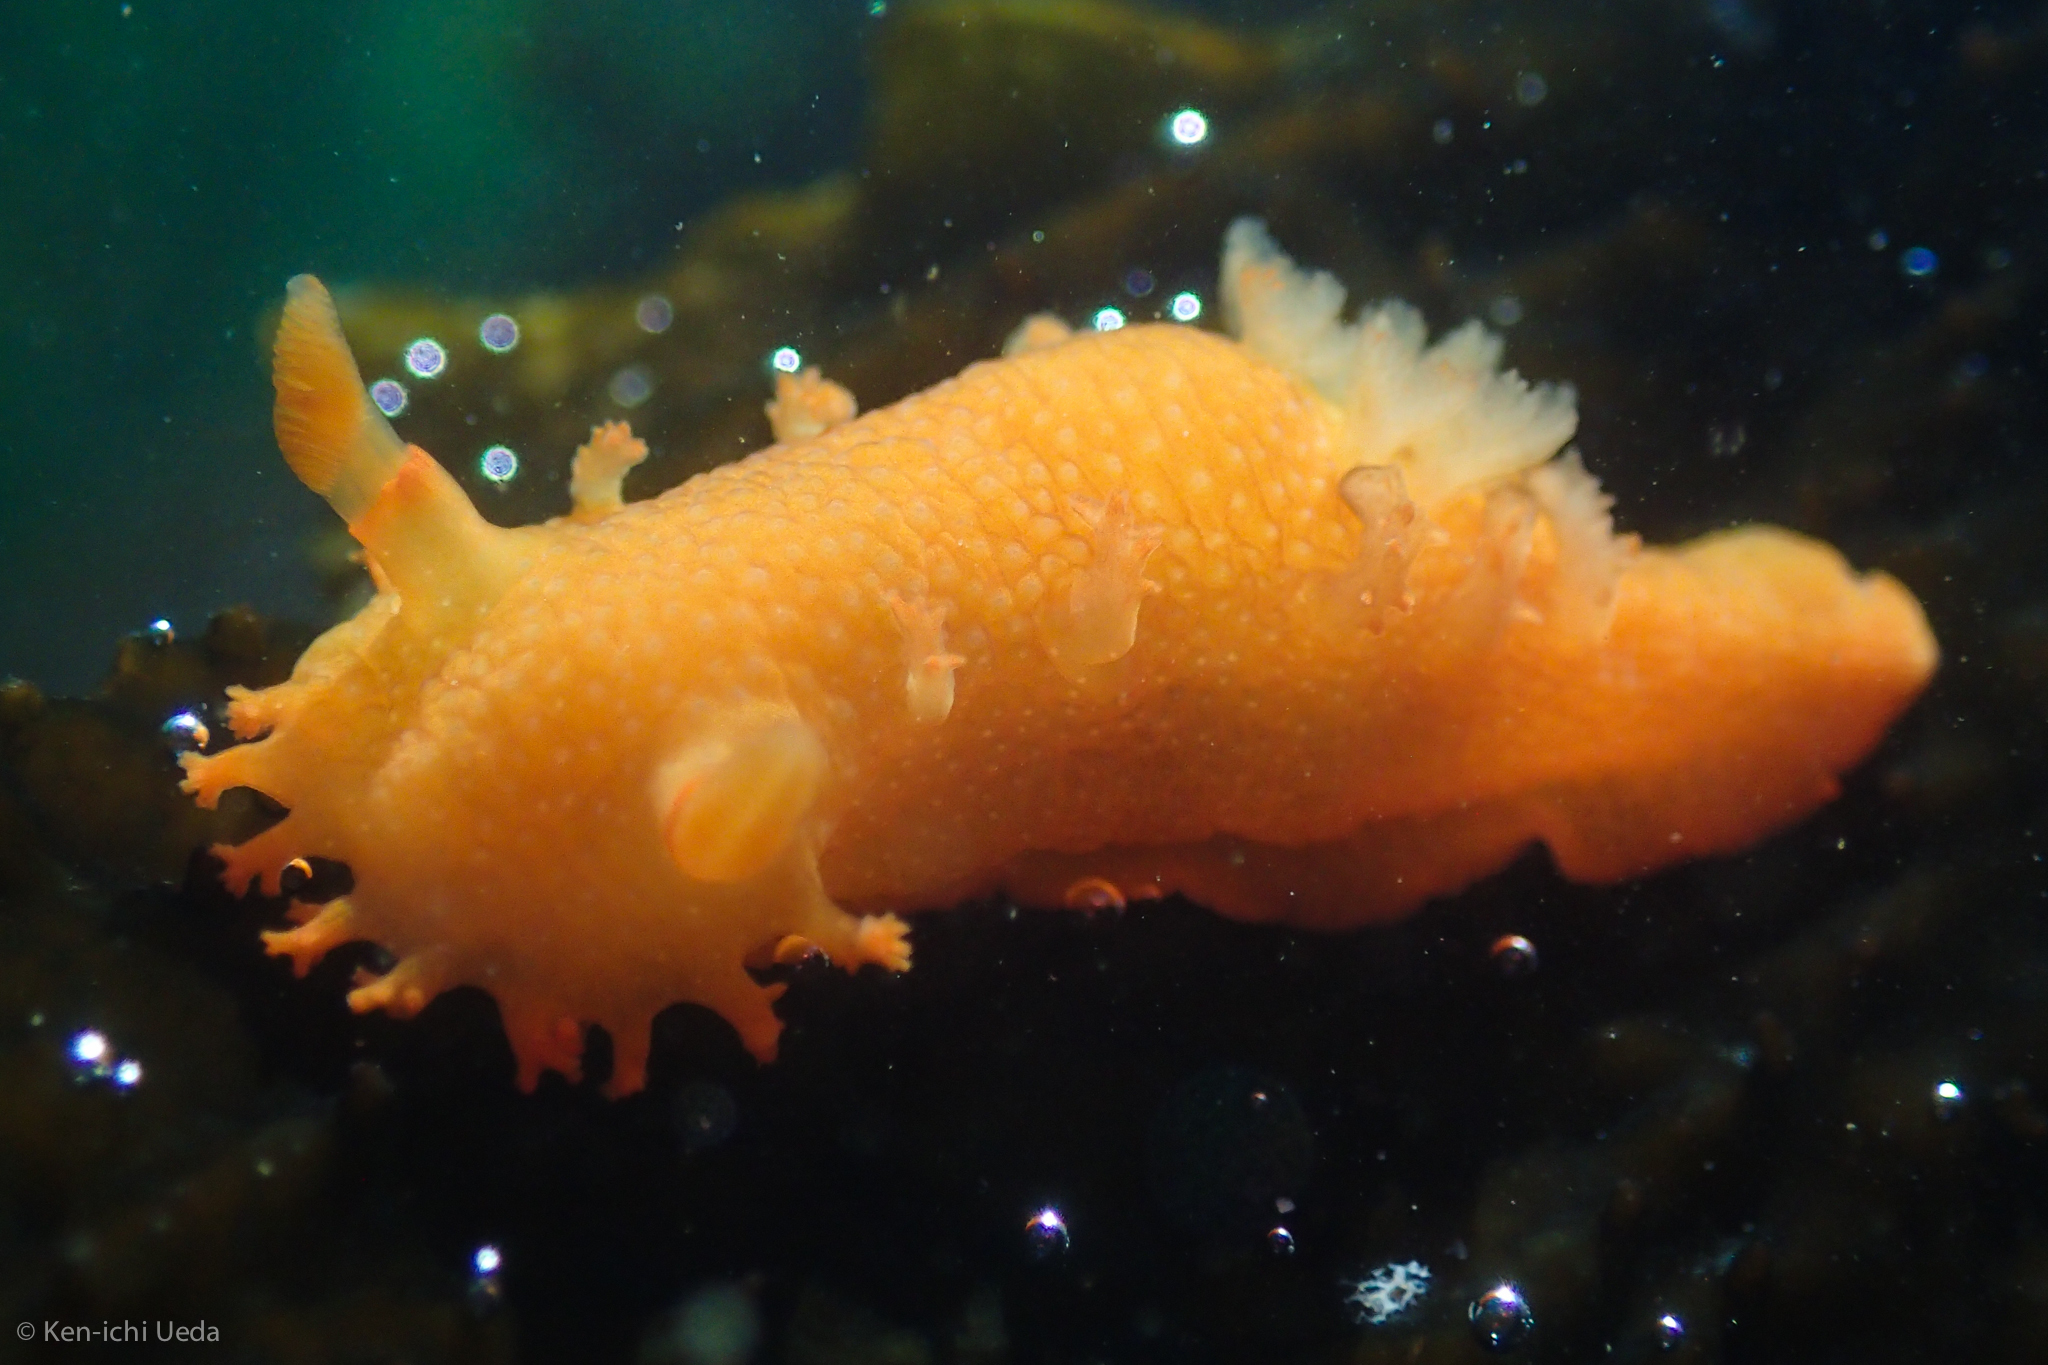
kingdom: Animalia
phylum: Mollusca
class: Gastropoda
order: Nudibranchia
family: Polyceridae
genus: Triopha
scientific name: Triopha maculata
